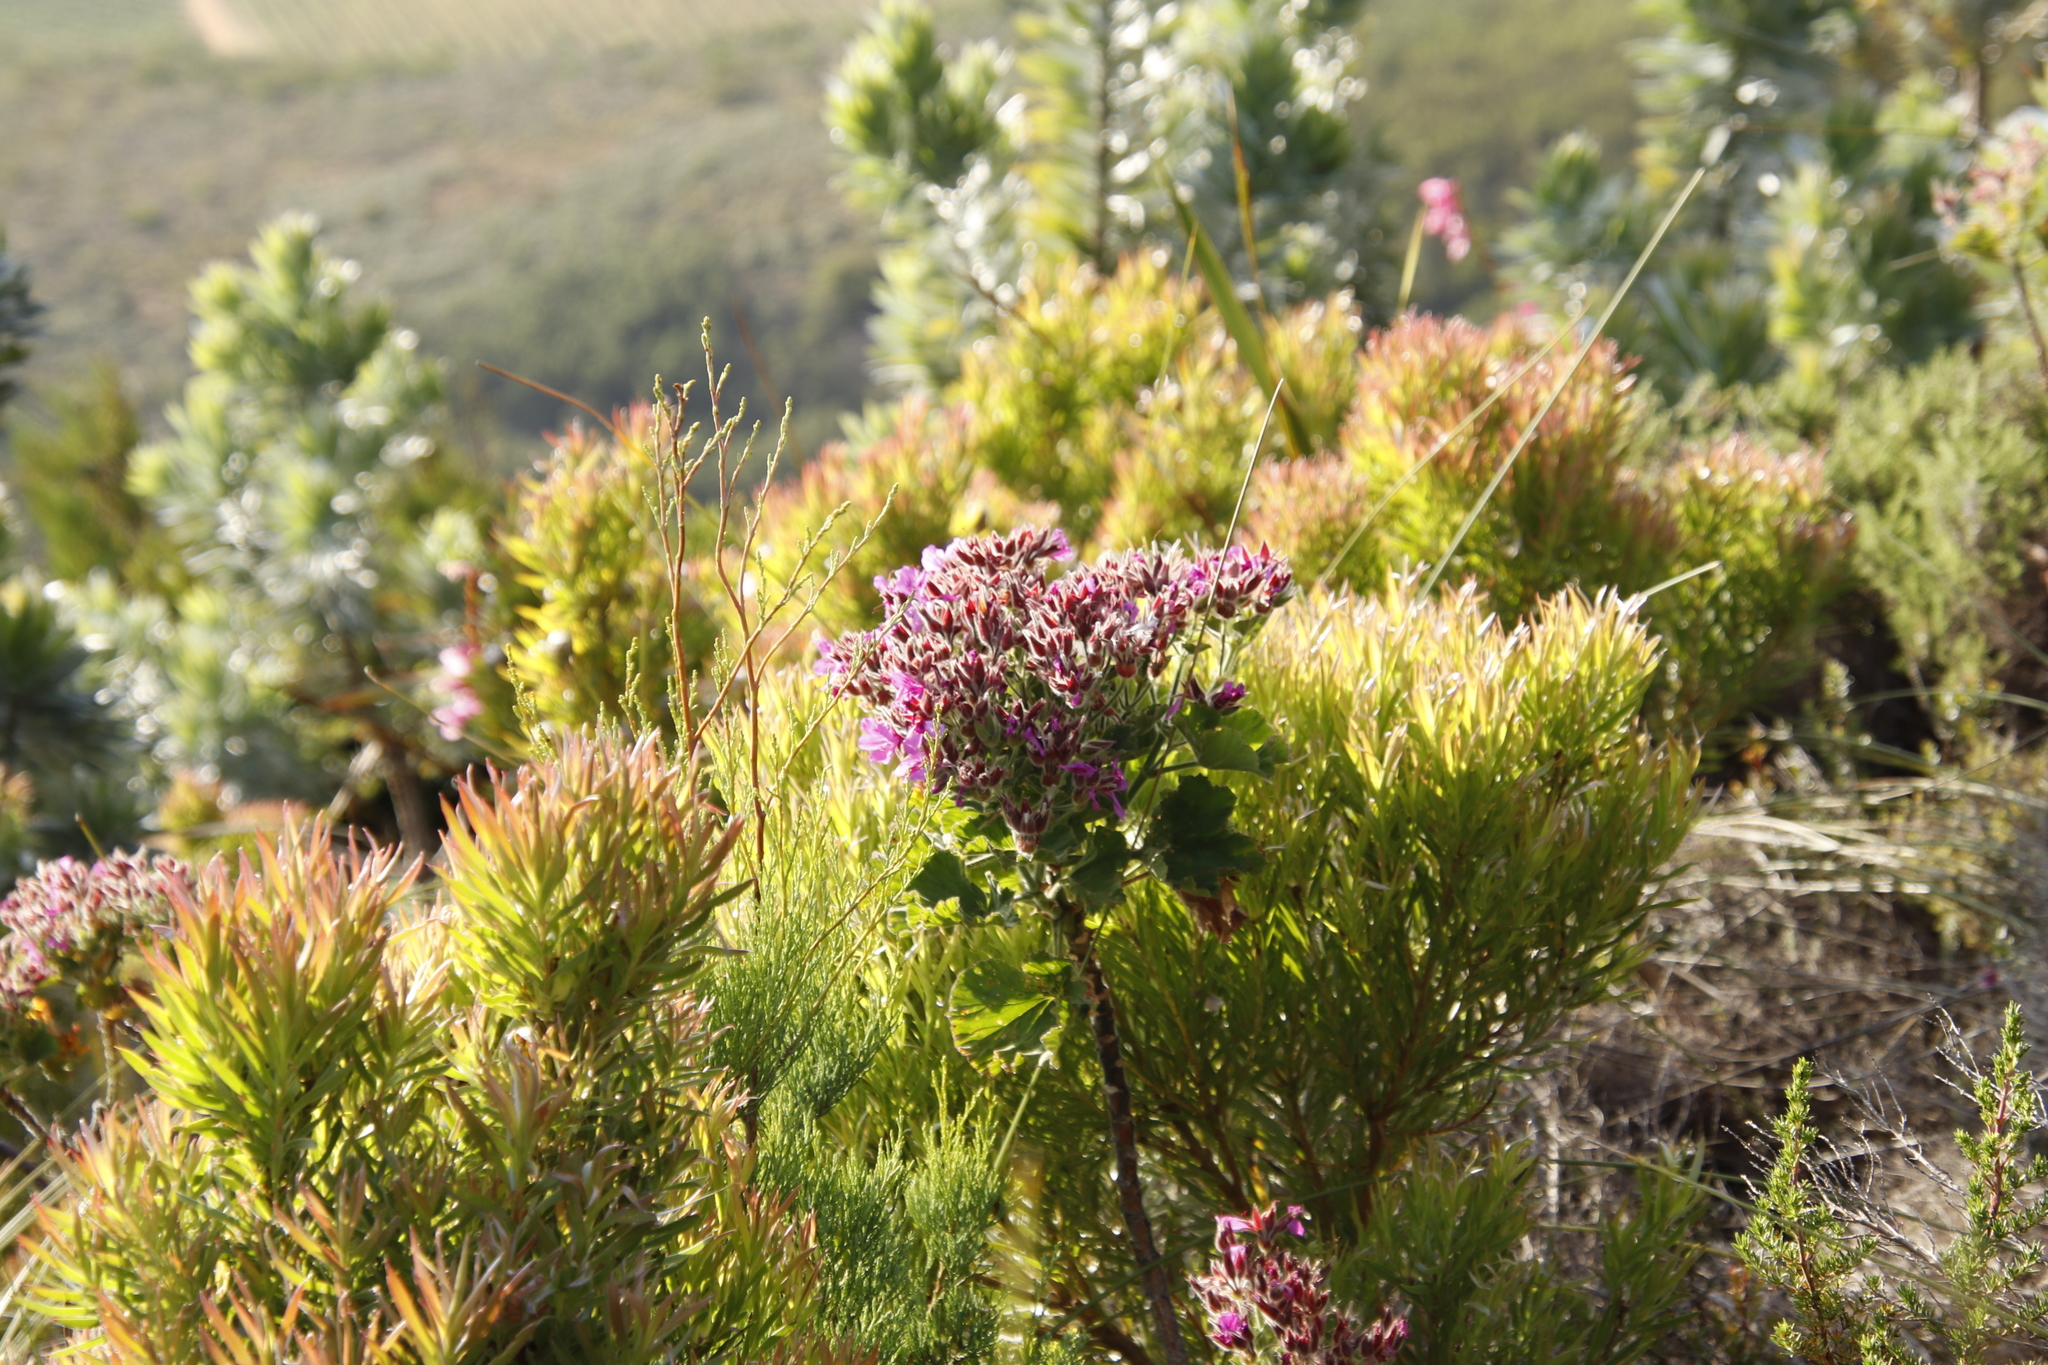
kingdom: Plantae
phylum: Tracheophyta
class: Magnoliopsida
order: Geraniales
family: Geraniaceae
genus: Pelargonium
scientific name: Pelargonium cucullatum
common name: Tree pelargonium
